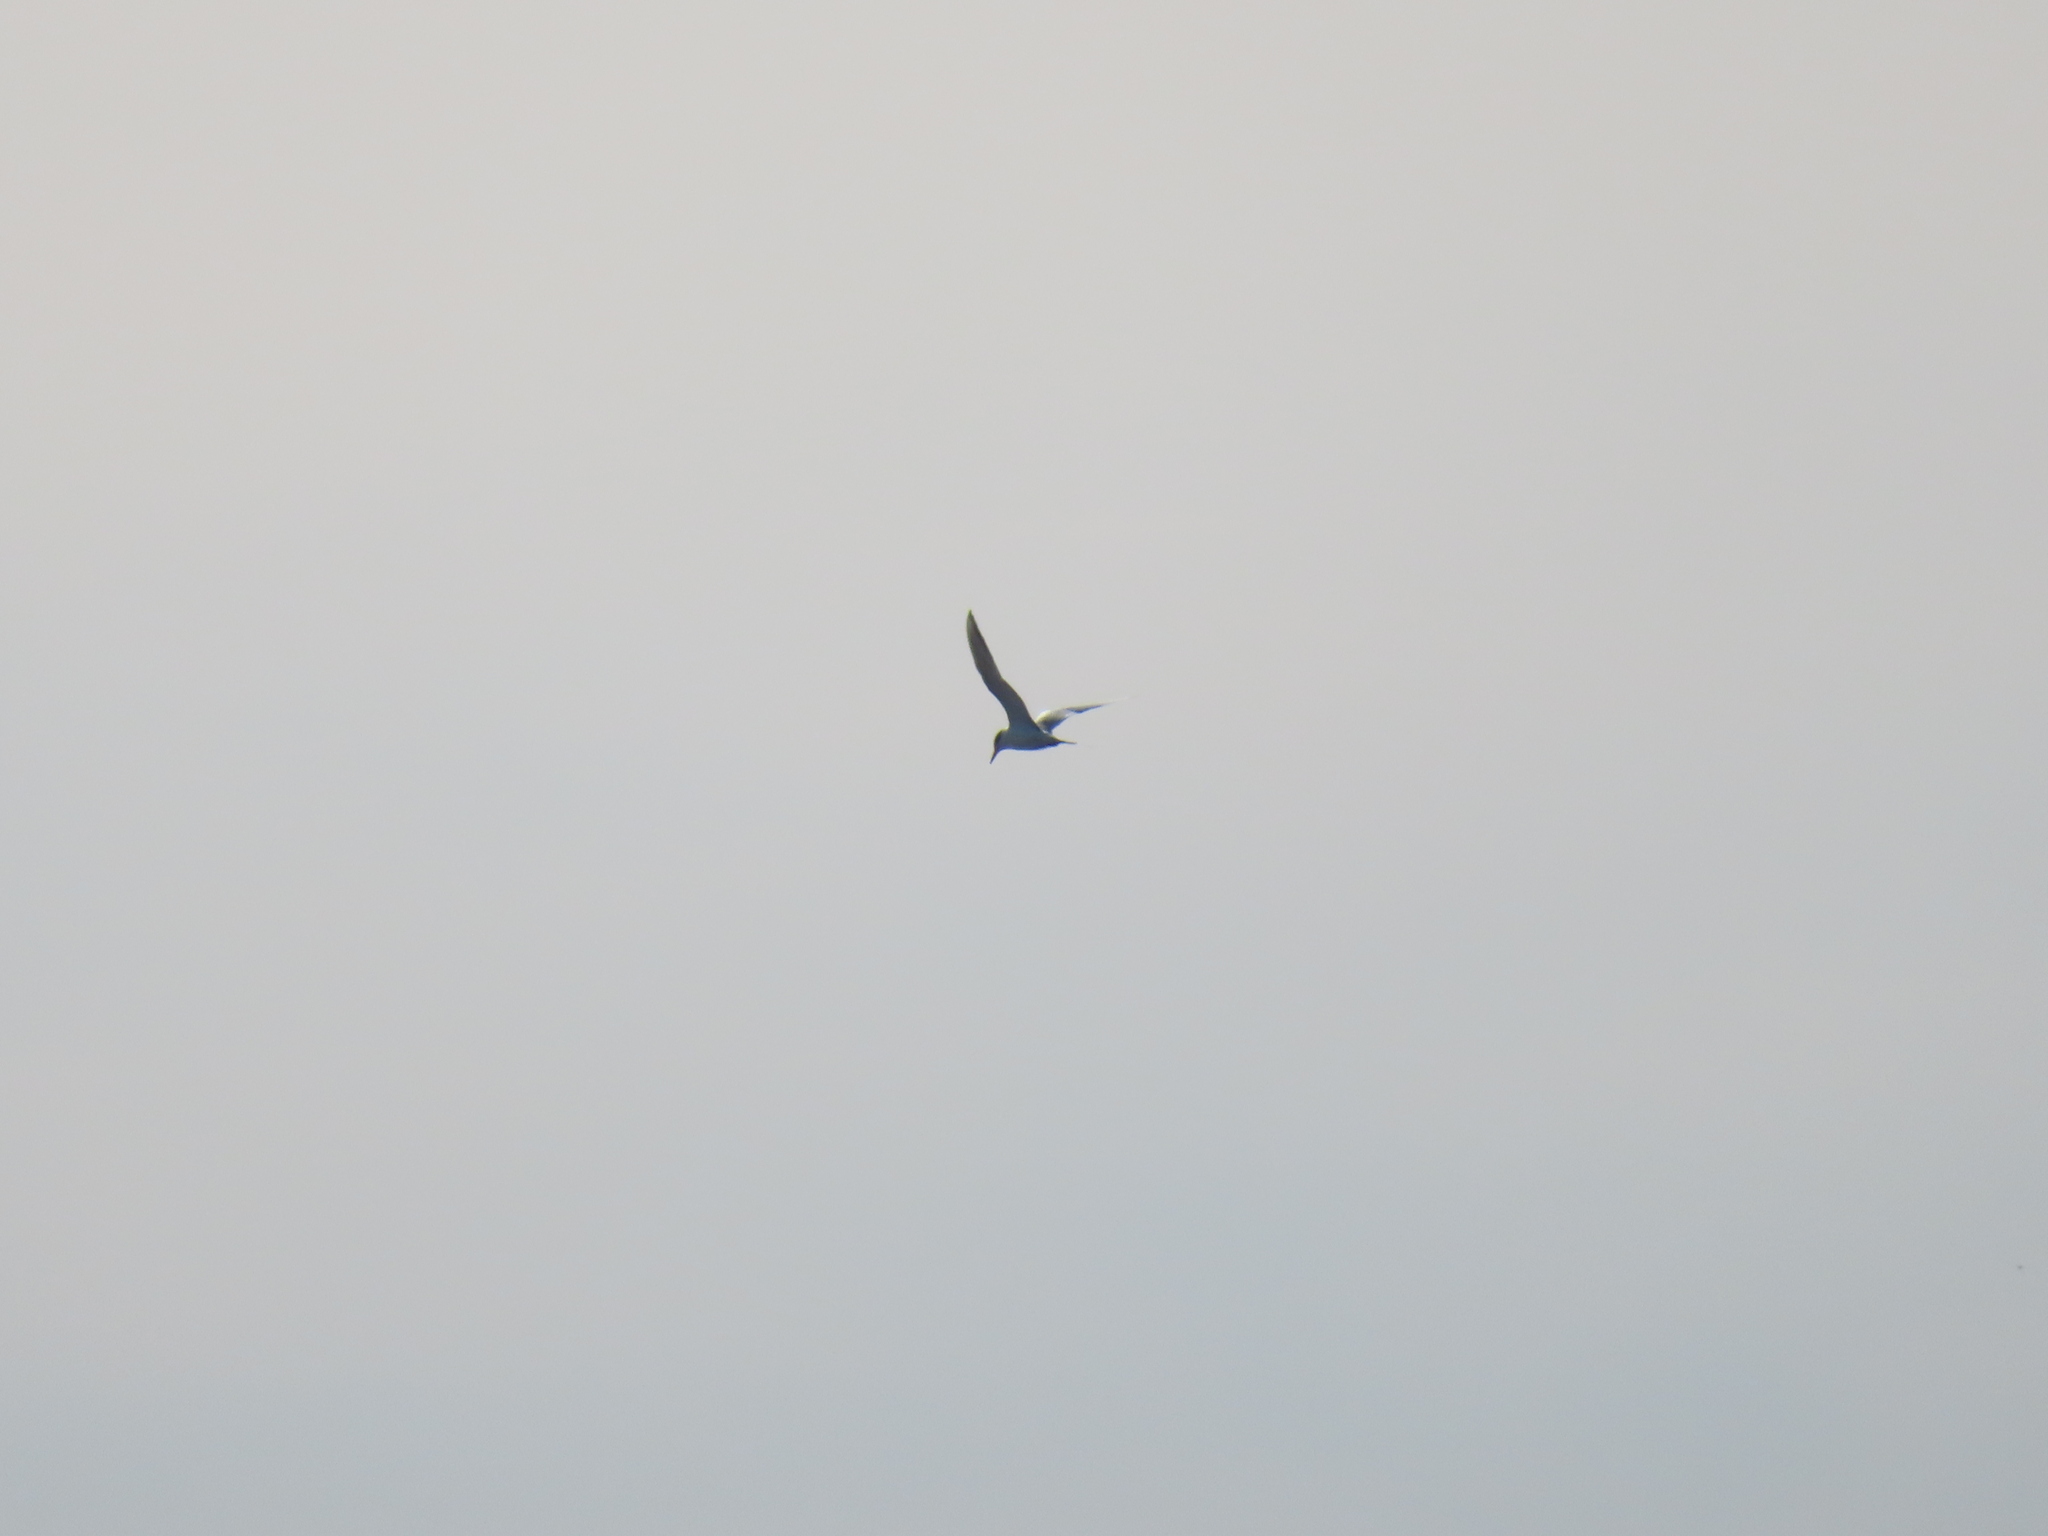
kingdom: Animalia
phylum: Chordata
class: Aves
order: Charadriiformes
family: Laridae
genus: Sterna
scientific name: Sterna forsteri
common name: Forster's tern
